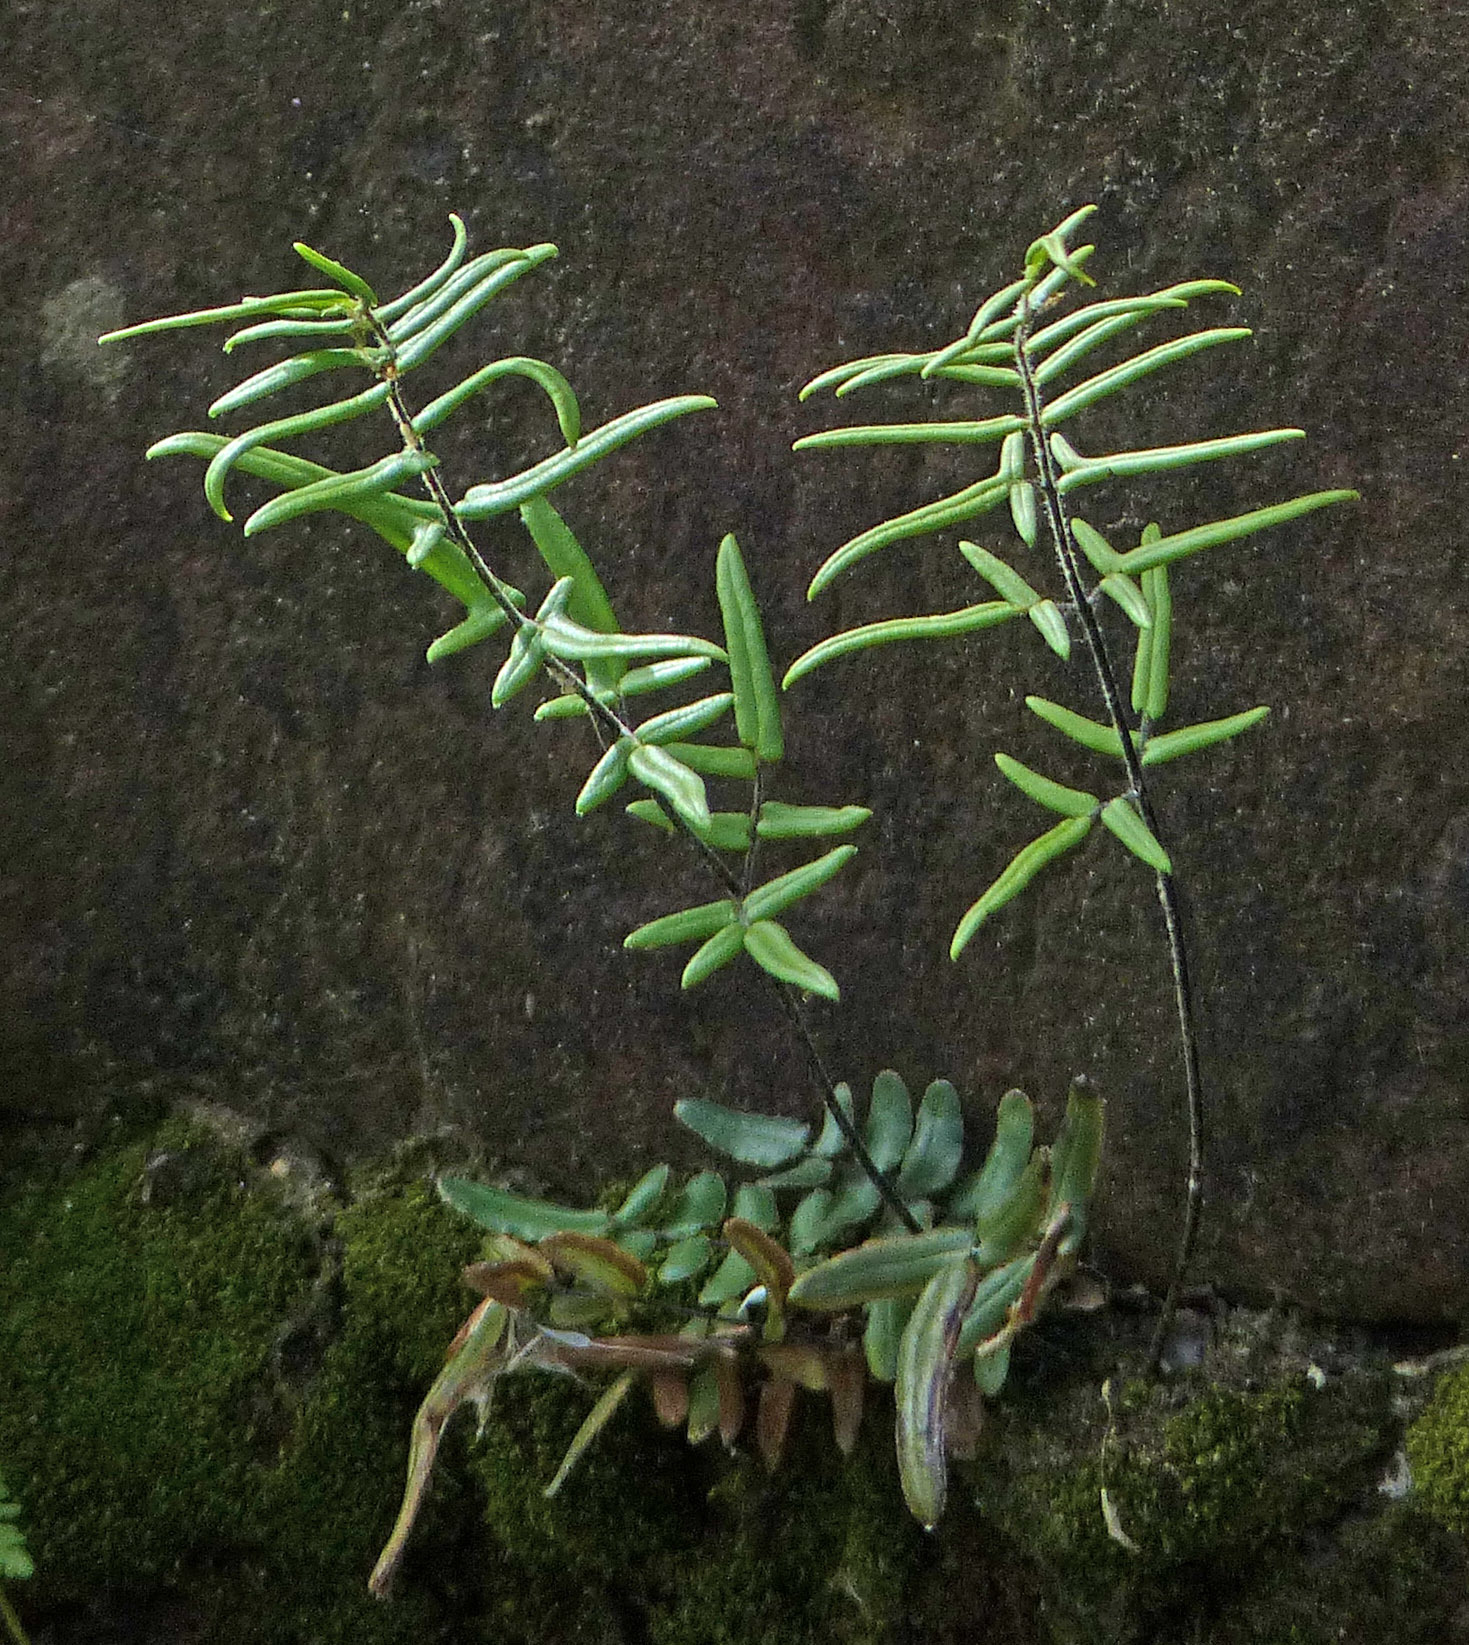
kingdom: Plantae
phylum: Tracheophyta
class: Polypodiopsida
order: Polypodiales
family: Pteridaceae
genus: Pellaea
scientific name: Pellaea atropurpurea
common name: Hairy cliffbrake
